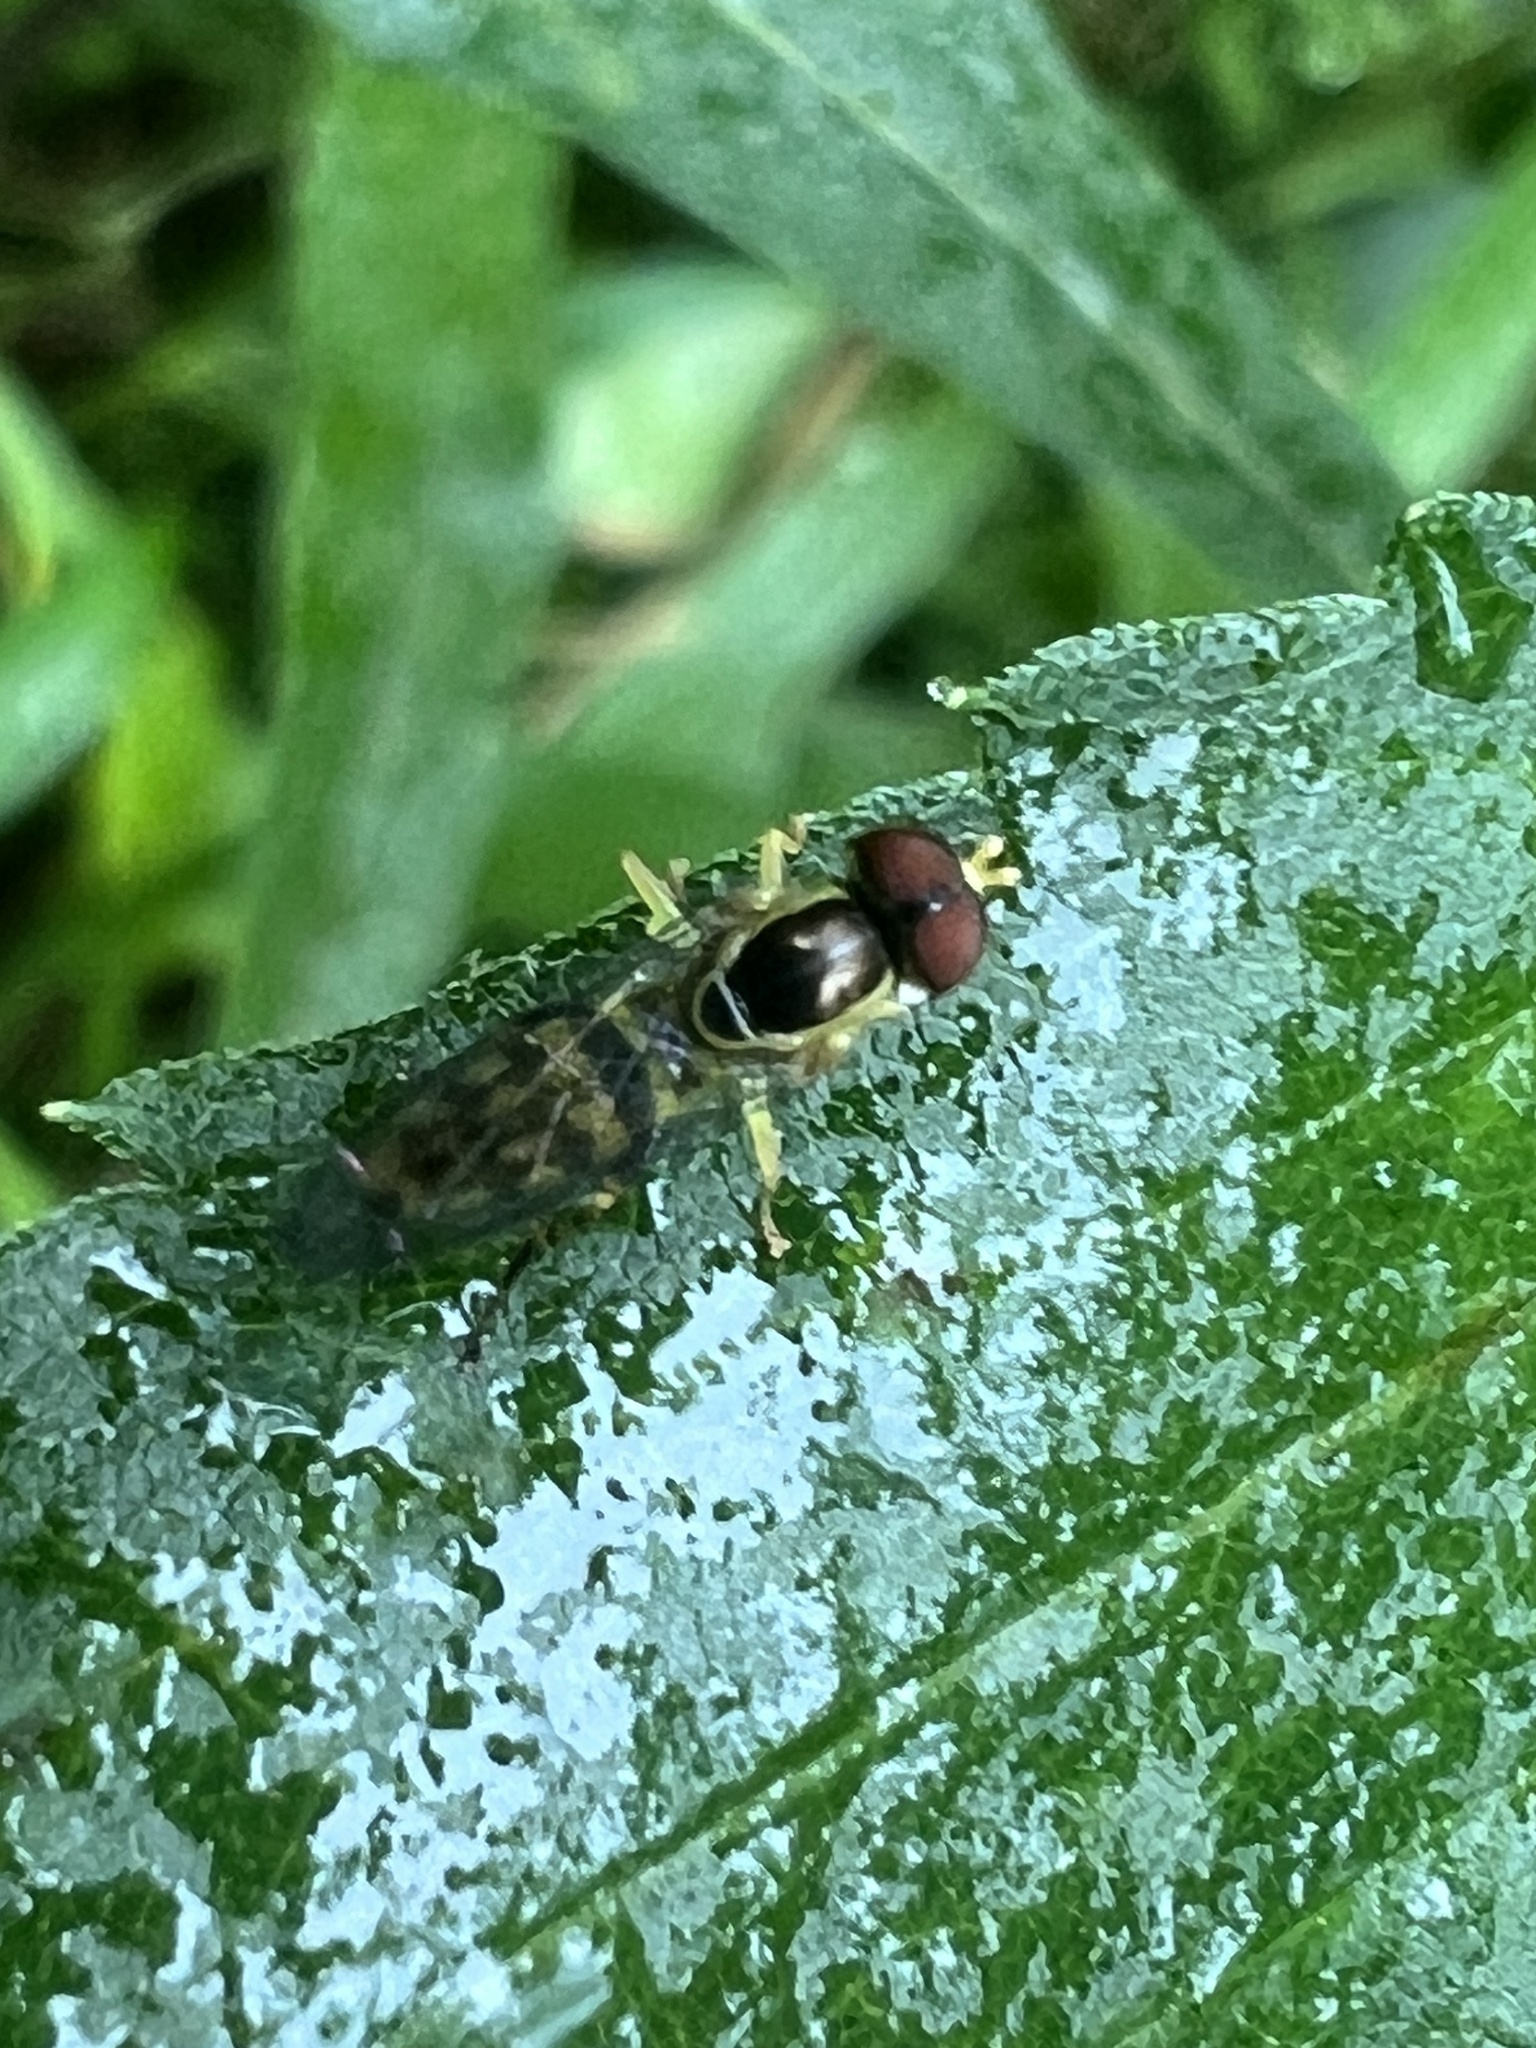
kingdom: Animalia
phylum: Arthropoda
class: Insecta
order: Diptera
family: Syrphidae
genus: Toxomerus
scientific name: Toxomerus geminatus
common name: Eastern calligrapher
